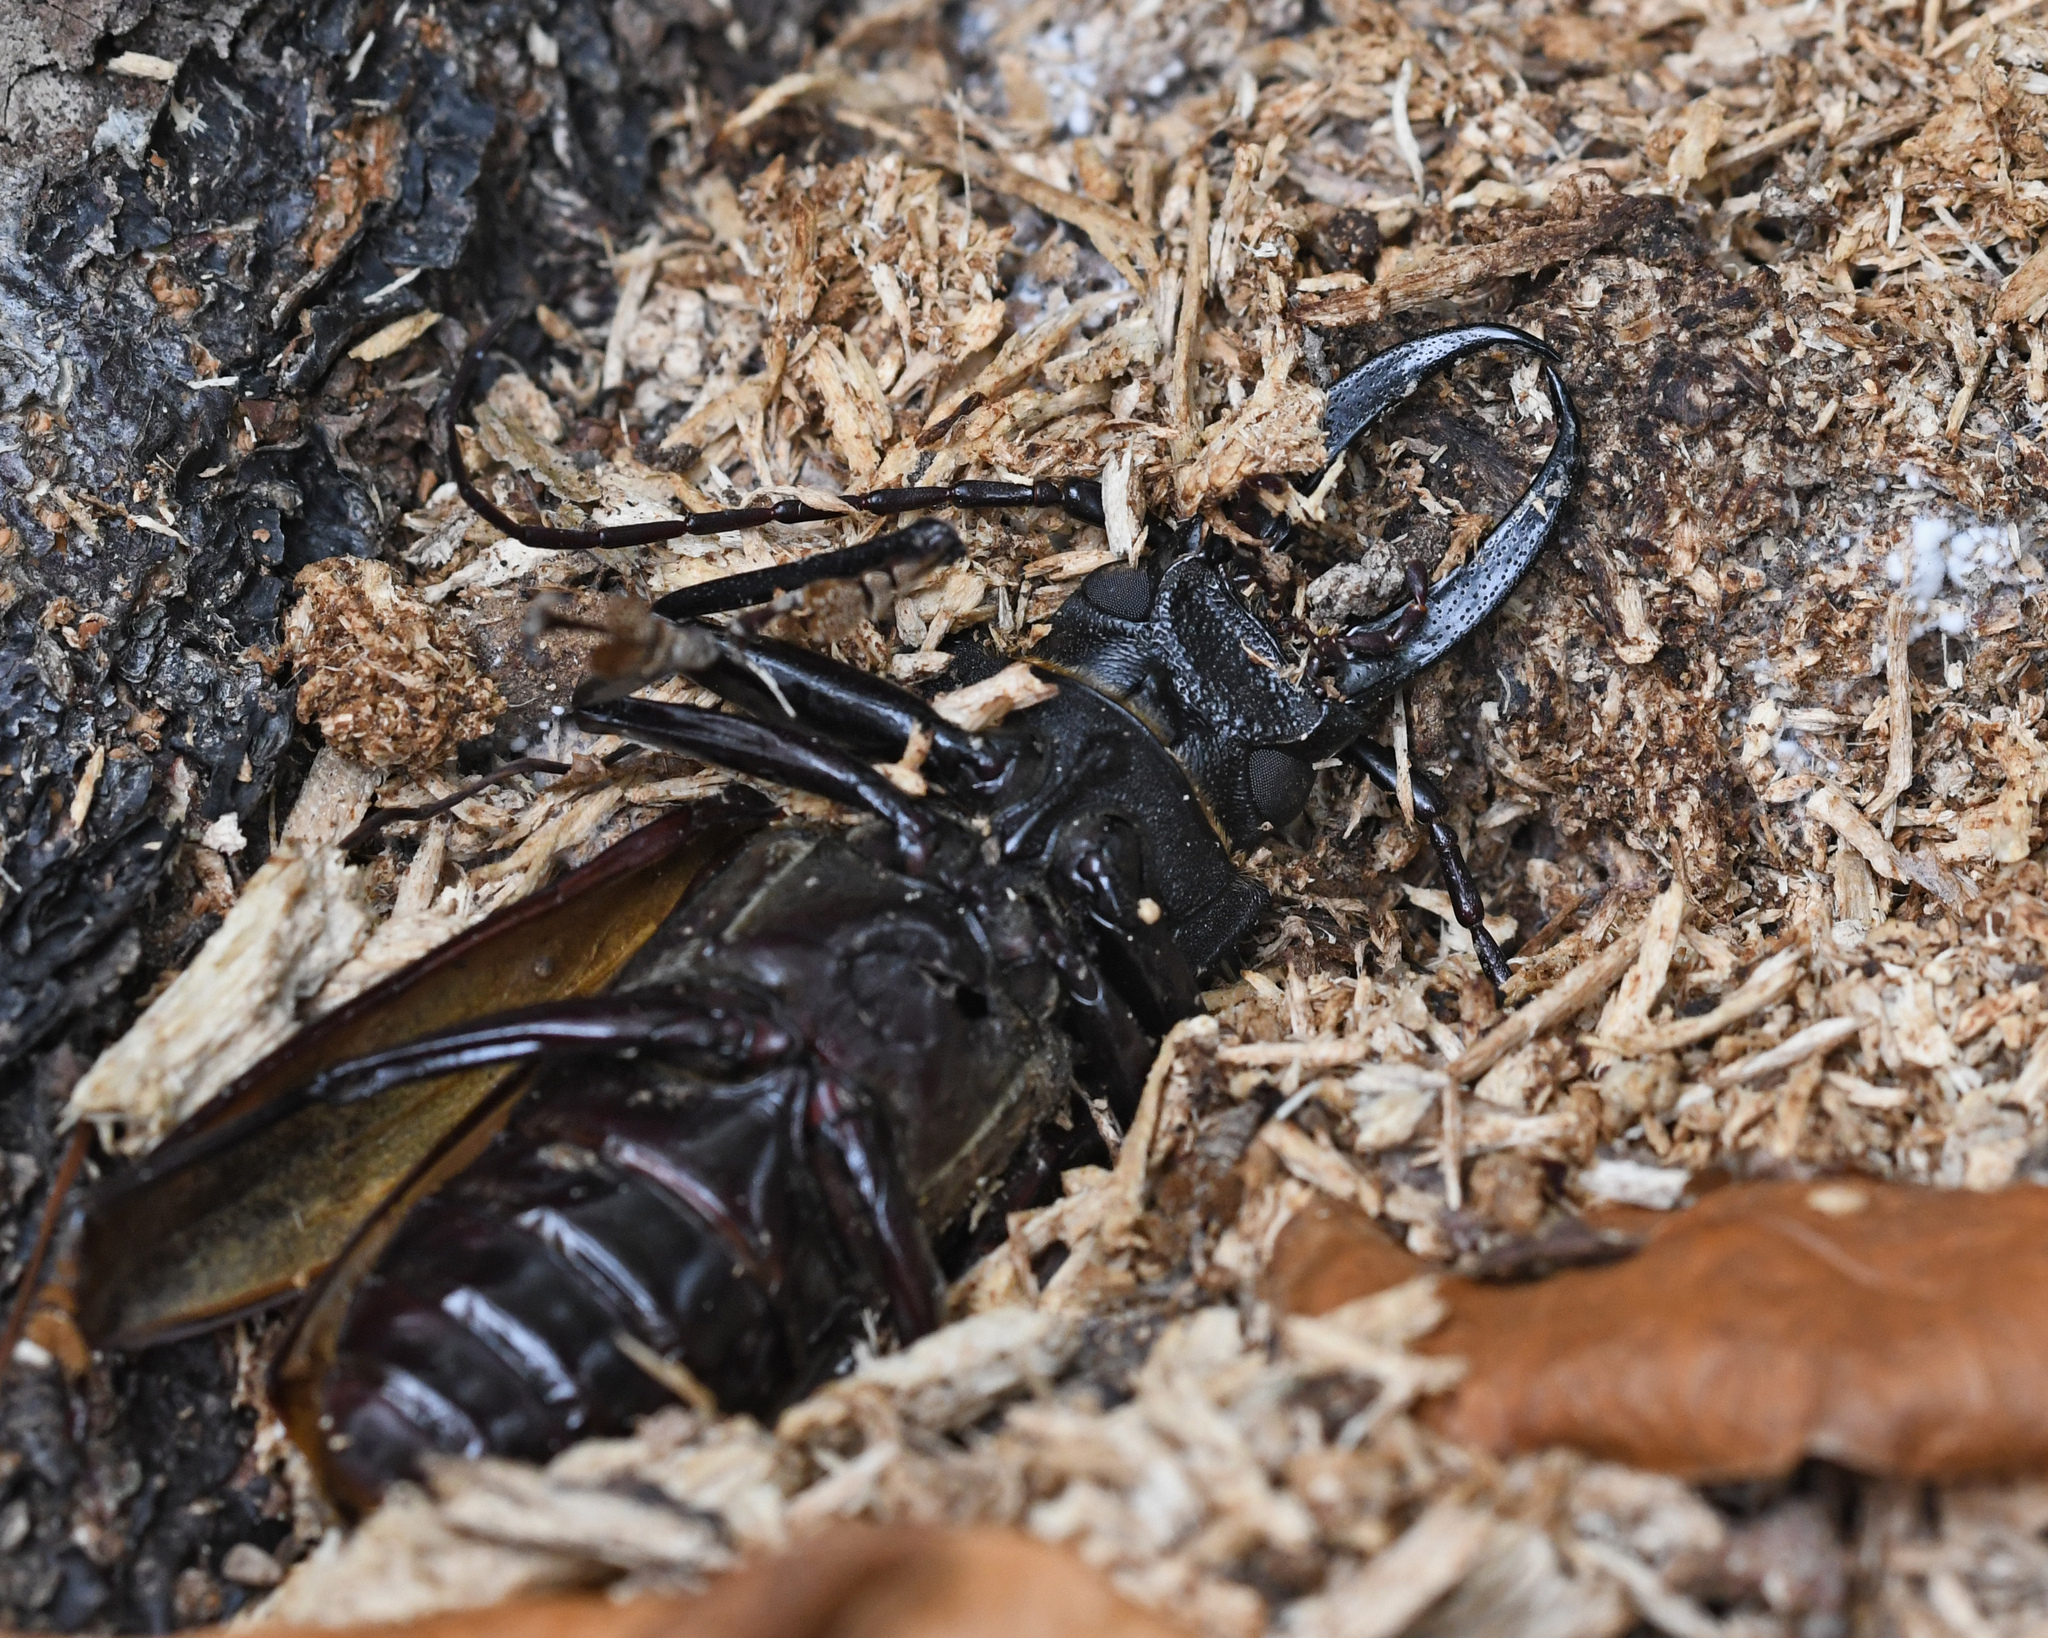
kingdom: Animalia
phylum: Arthropoda
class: Insecta
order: Coleoptera
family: Cerambycidae
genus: Stenodontes
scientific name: Stenodontes exsertus
